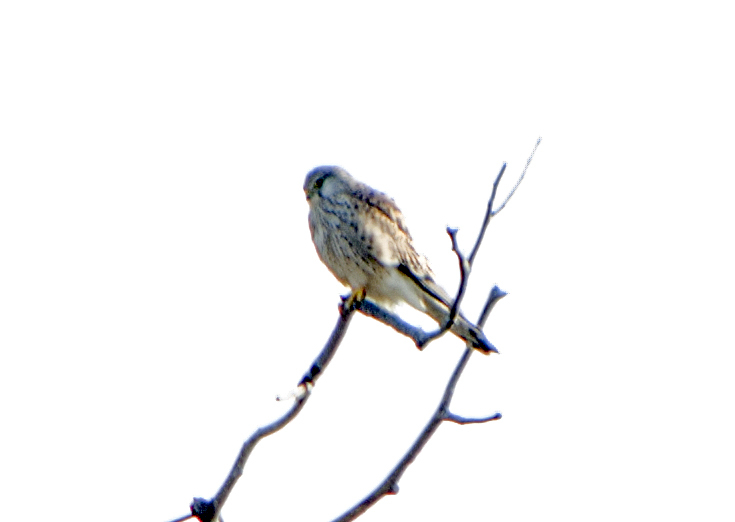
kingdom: Animalia
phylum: Chordata
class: Aves
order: Falconiformes
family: Falconidae
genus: Falco
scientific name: Falco tinnunculus
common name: Common kestrel
